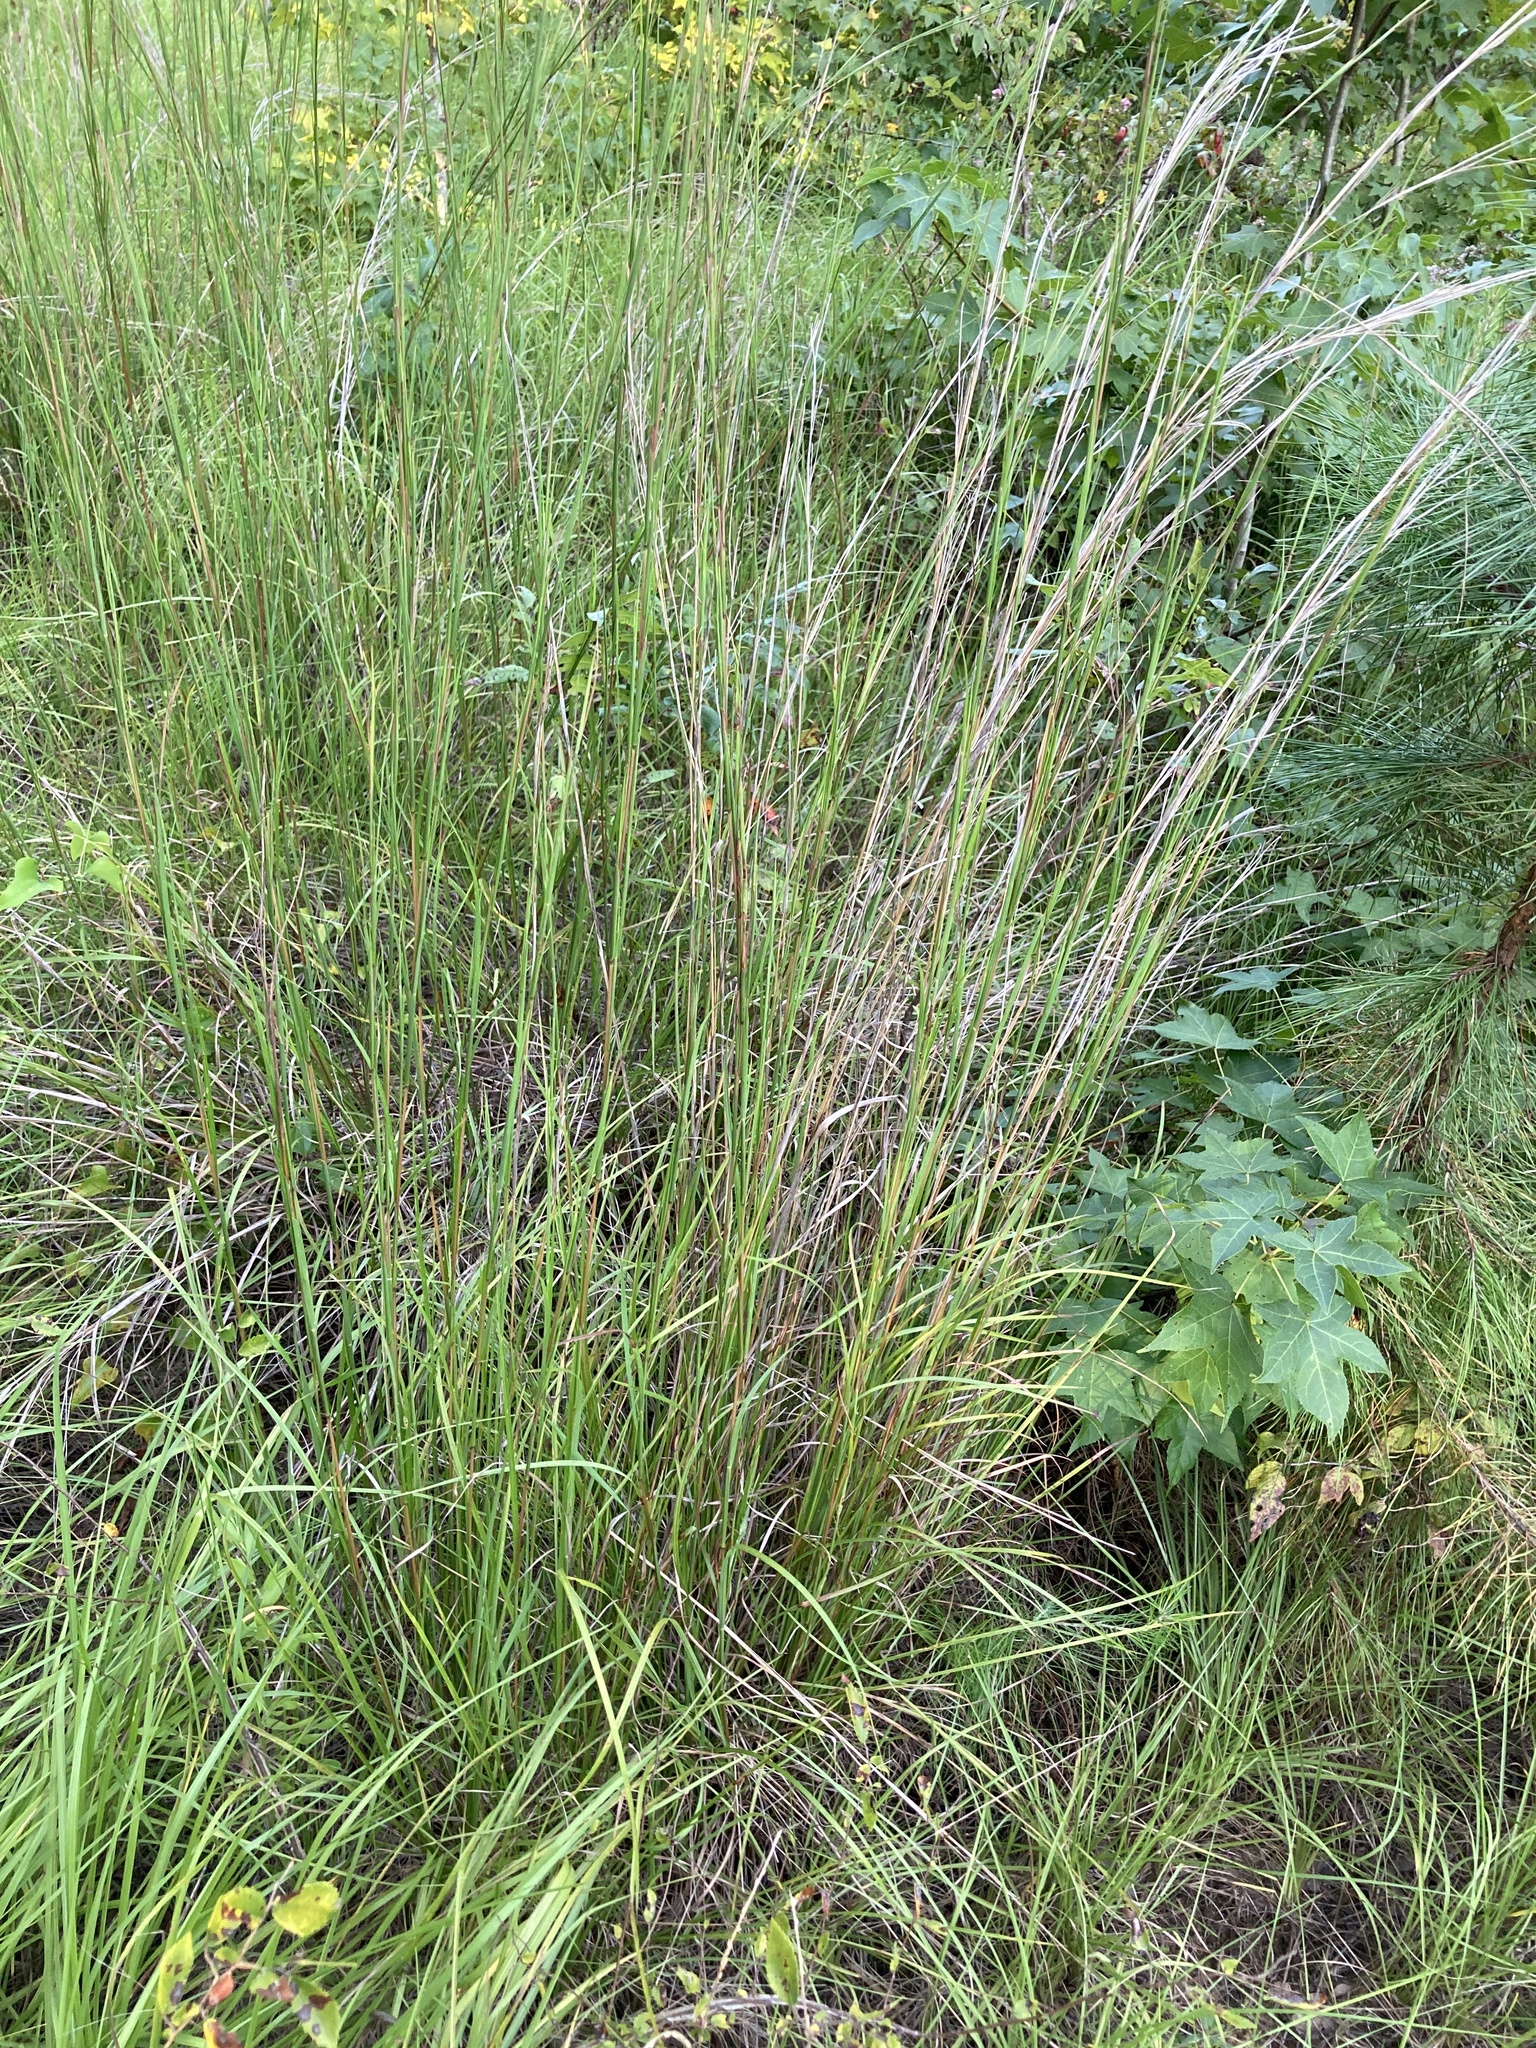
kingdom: Plantae
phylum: Tracheophyta
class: Liliopsida
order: Poales
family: Poaceae
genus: Schizachyrium
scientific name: Schizachyrium scoparium
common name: Little bluestem
